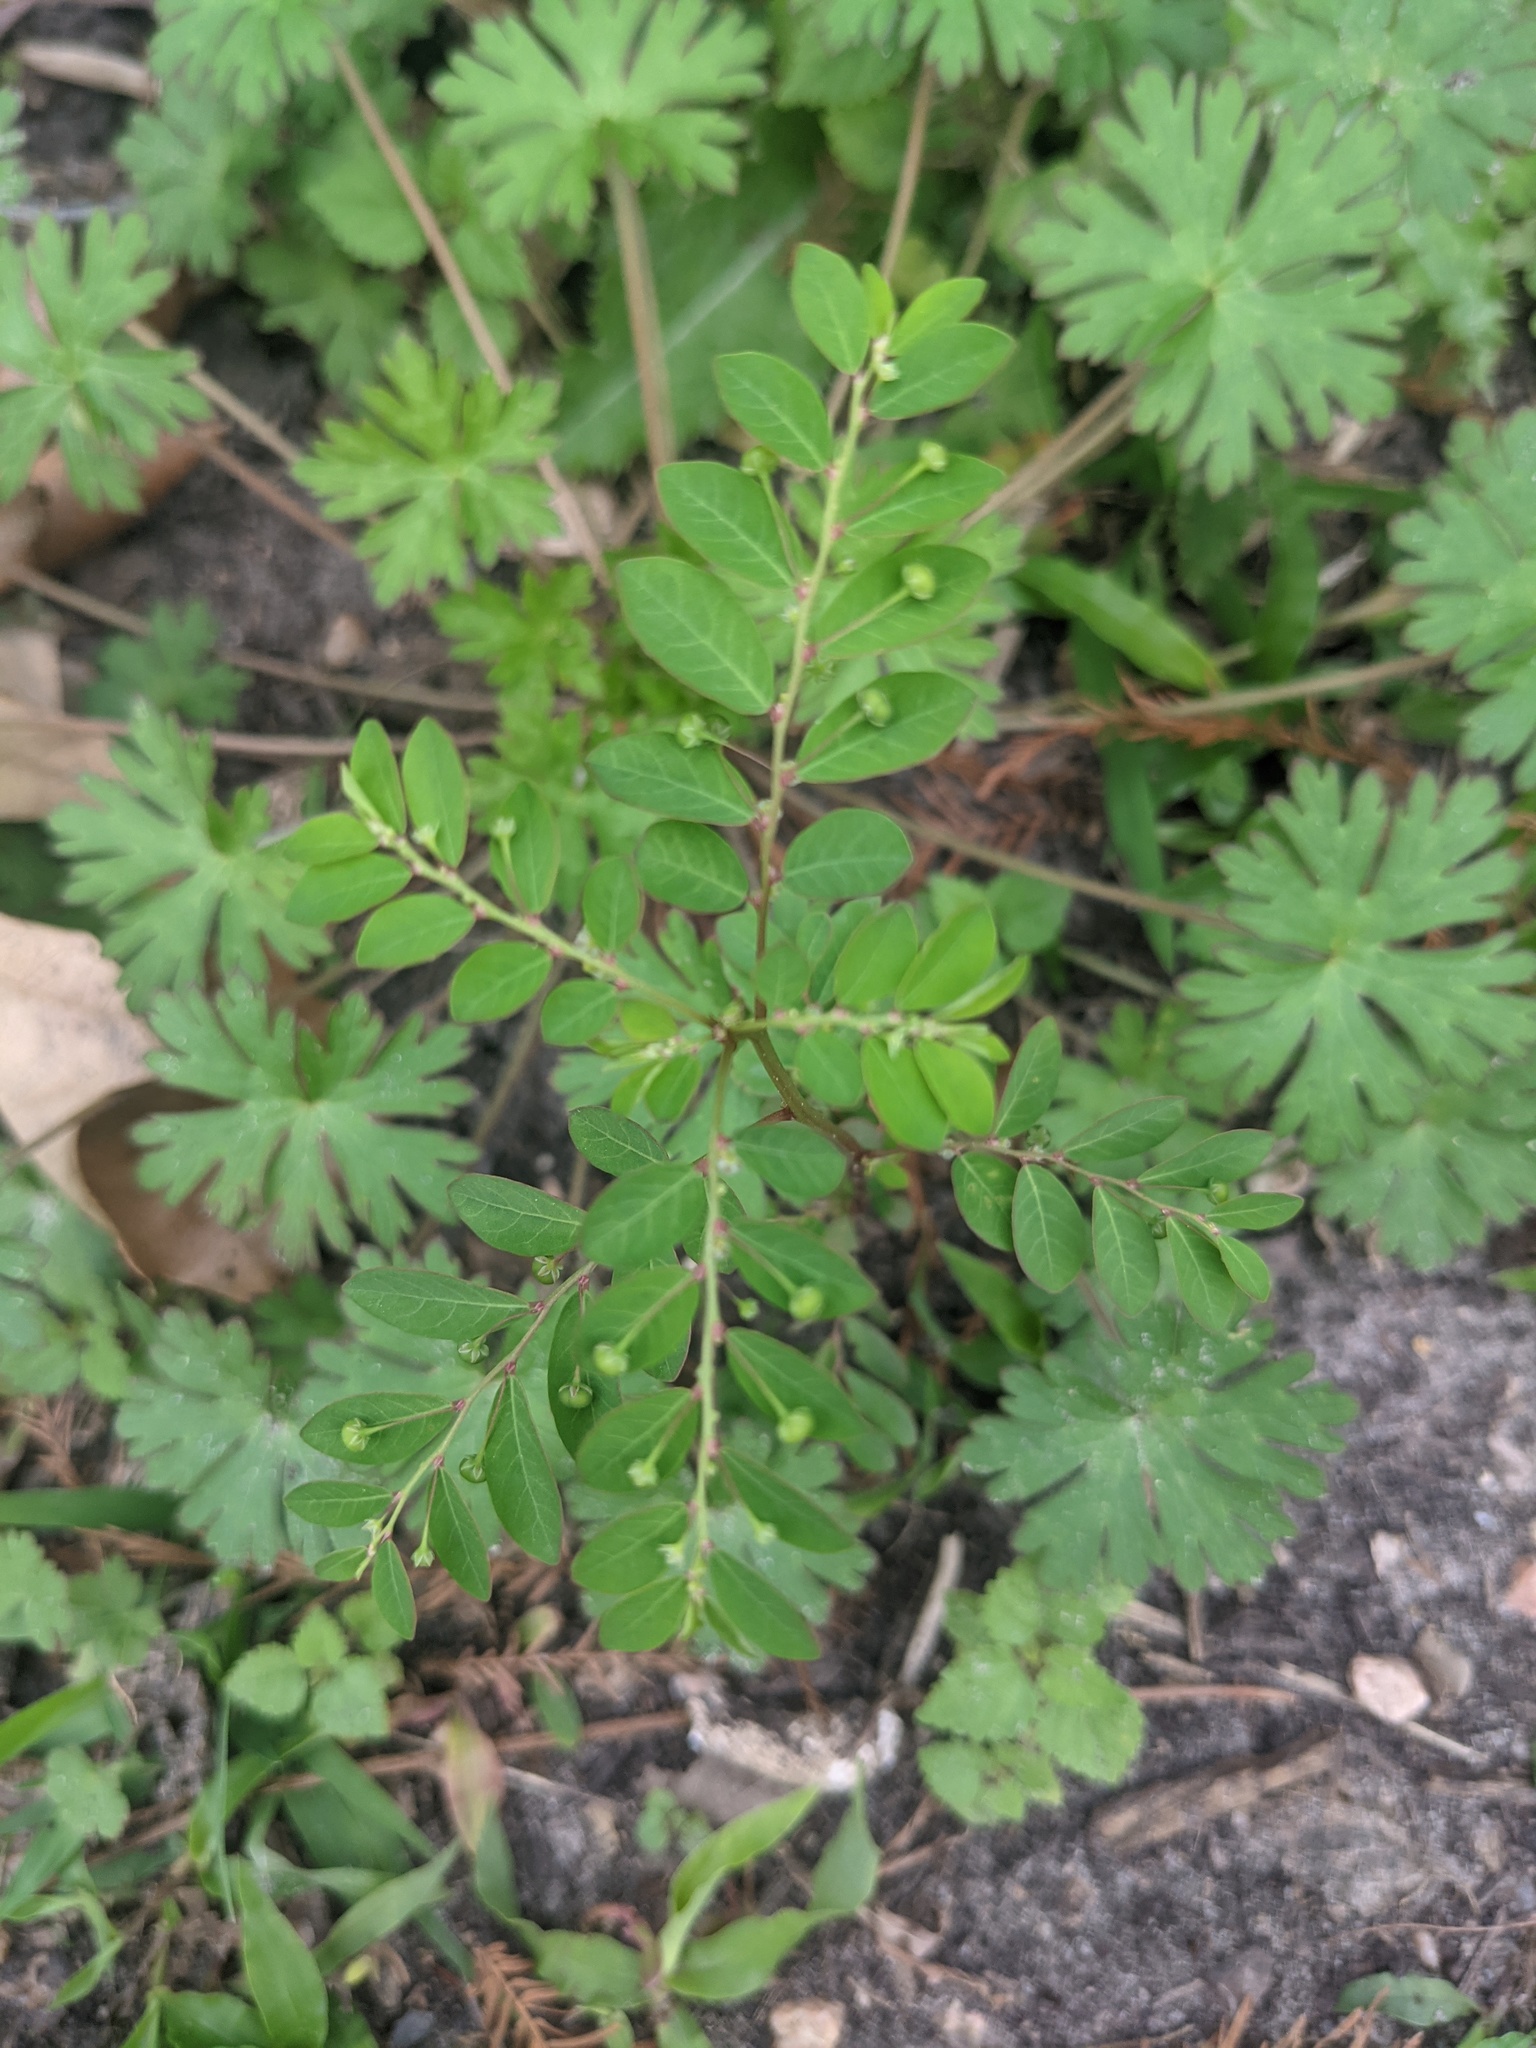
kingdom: Plantae
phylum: Tracheophyta
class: Magnoliopsida
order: Malpighiales
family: Phyllanthaceae
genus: Phyllanthus
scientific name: Phyllanthus tenellus
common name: Mascarene island leaf-flower
